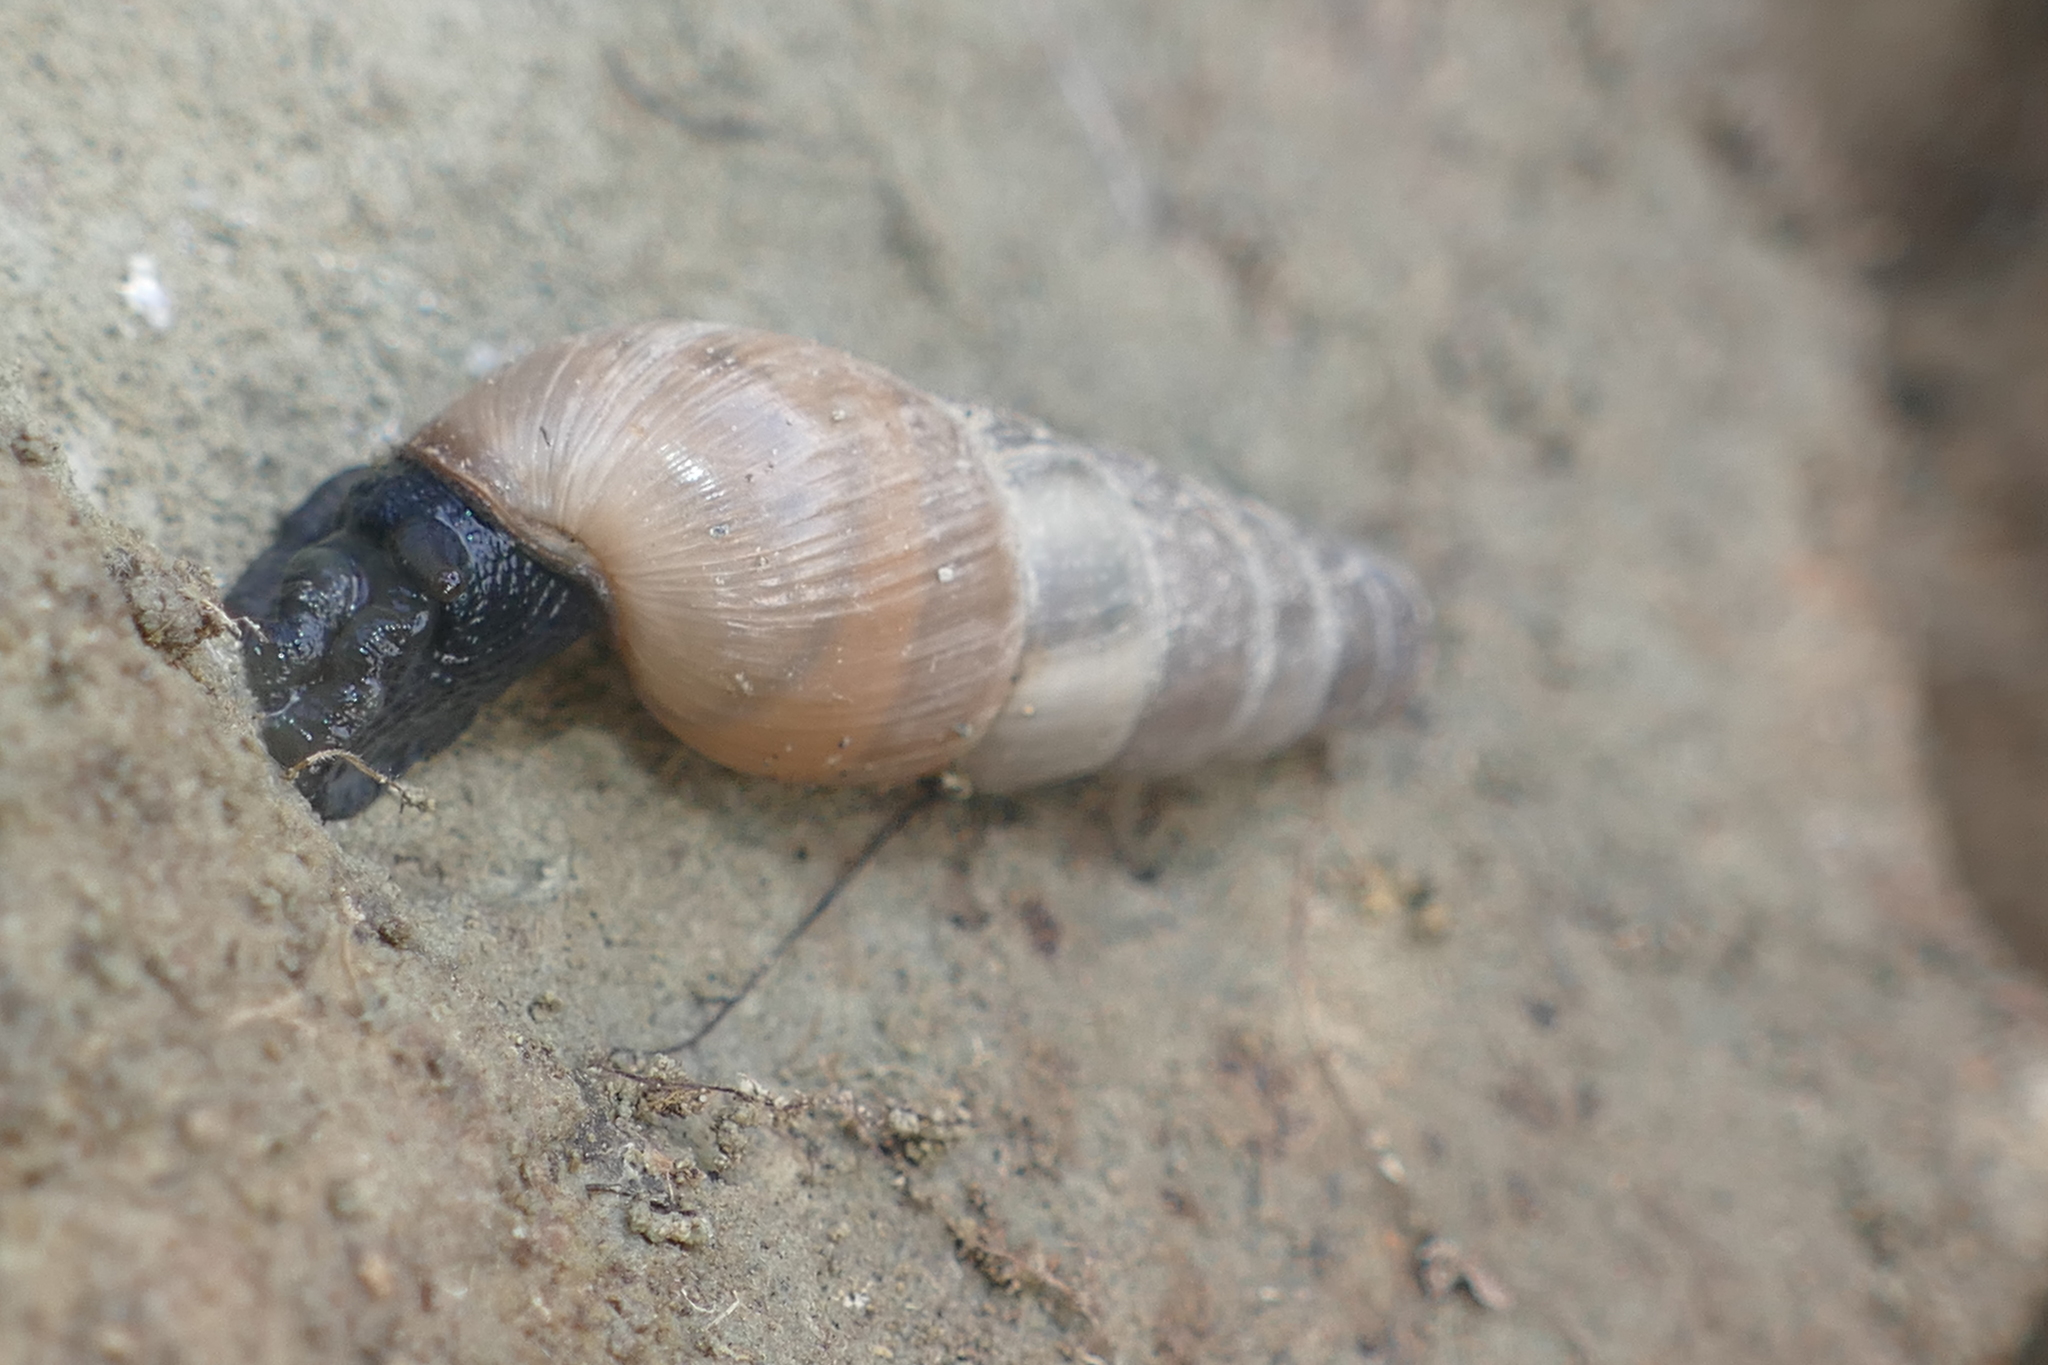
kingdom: Animalia
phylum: Mollusca
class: Gastropoda
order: Stylommatophora
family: Achatinidae
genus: Rumina
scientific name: Rumina decollata
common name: Decollate snail
